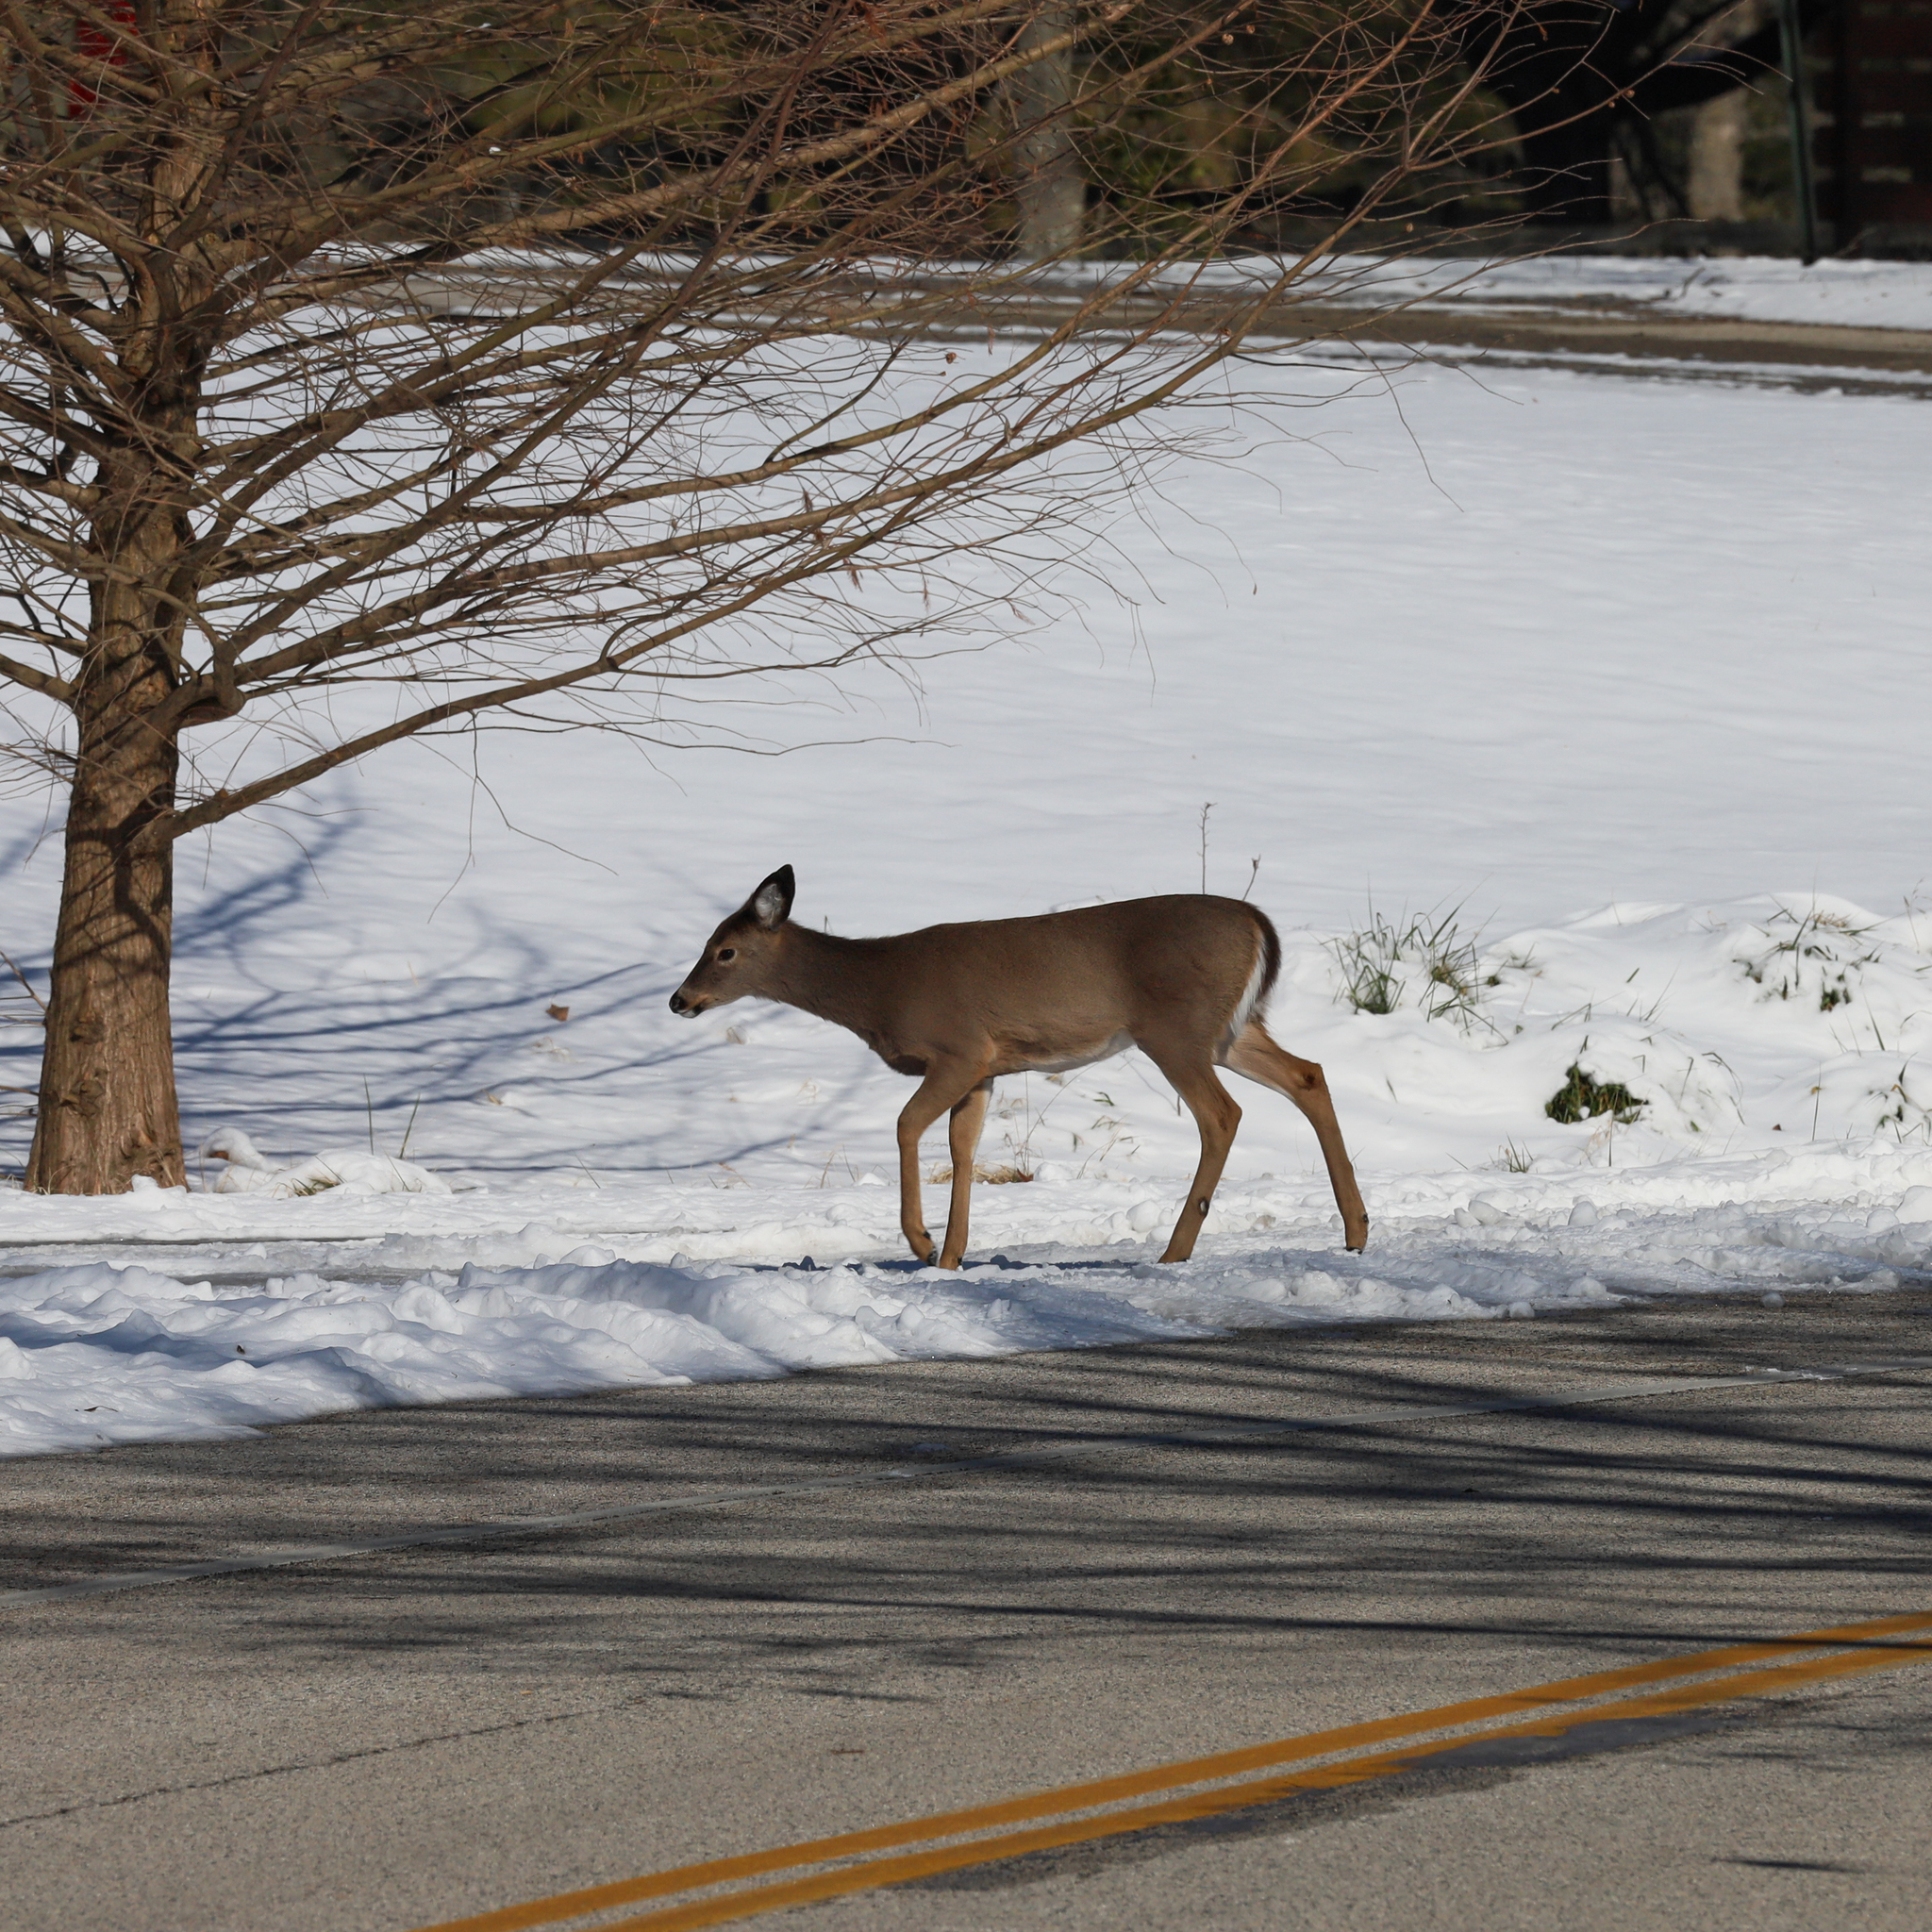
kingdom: Animalia
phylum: Chordata
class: Mammalia
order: Artiodactyla
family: Cervidae
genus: Odocoileus
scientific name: Odocoileus virginianus
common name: White-tailed deer
